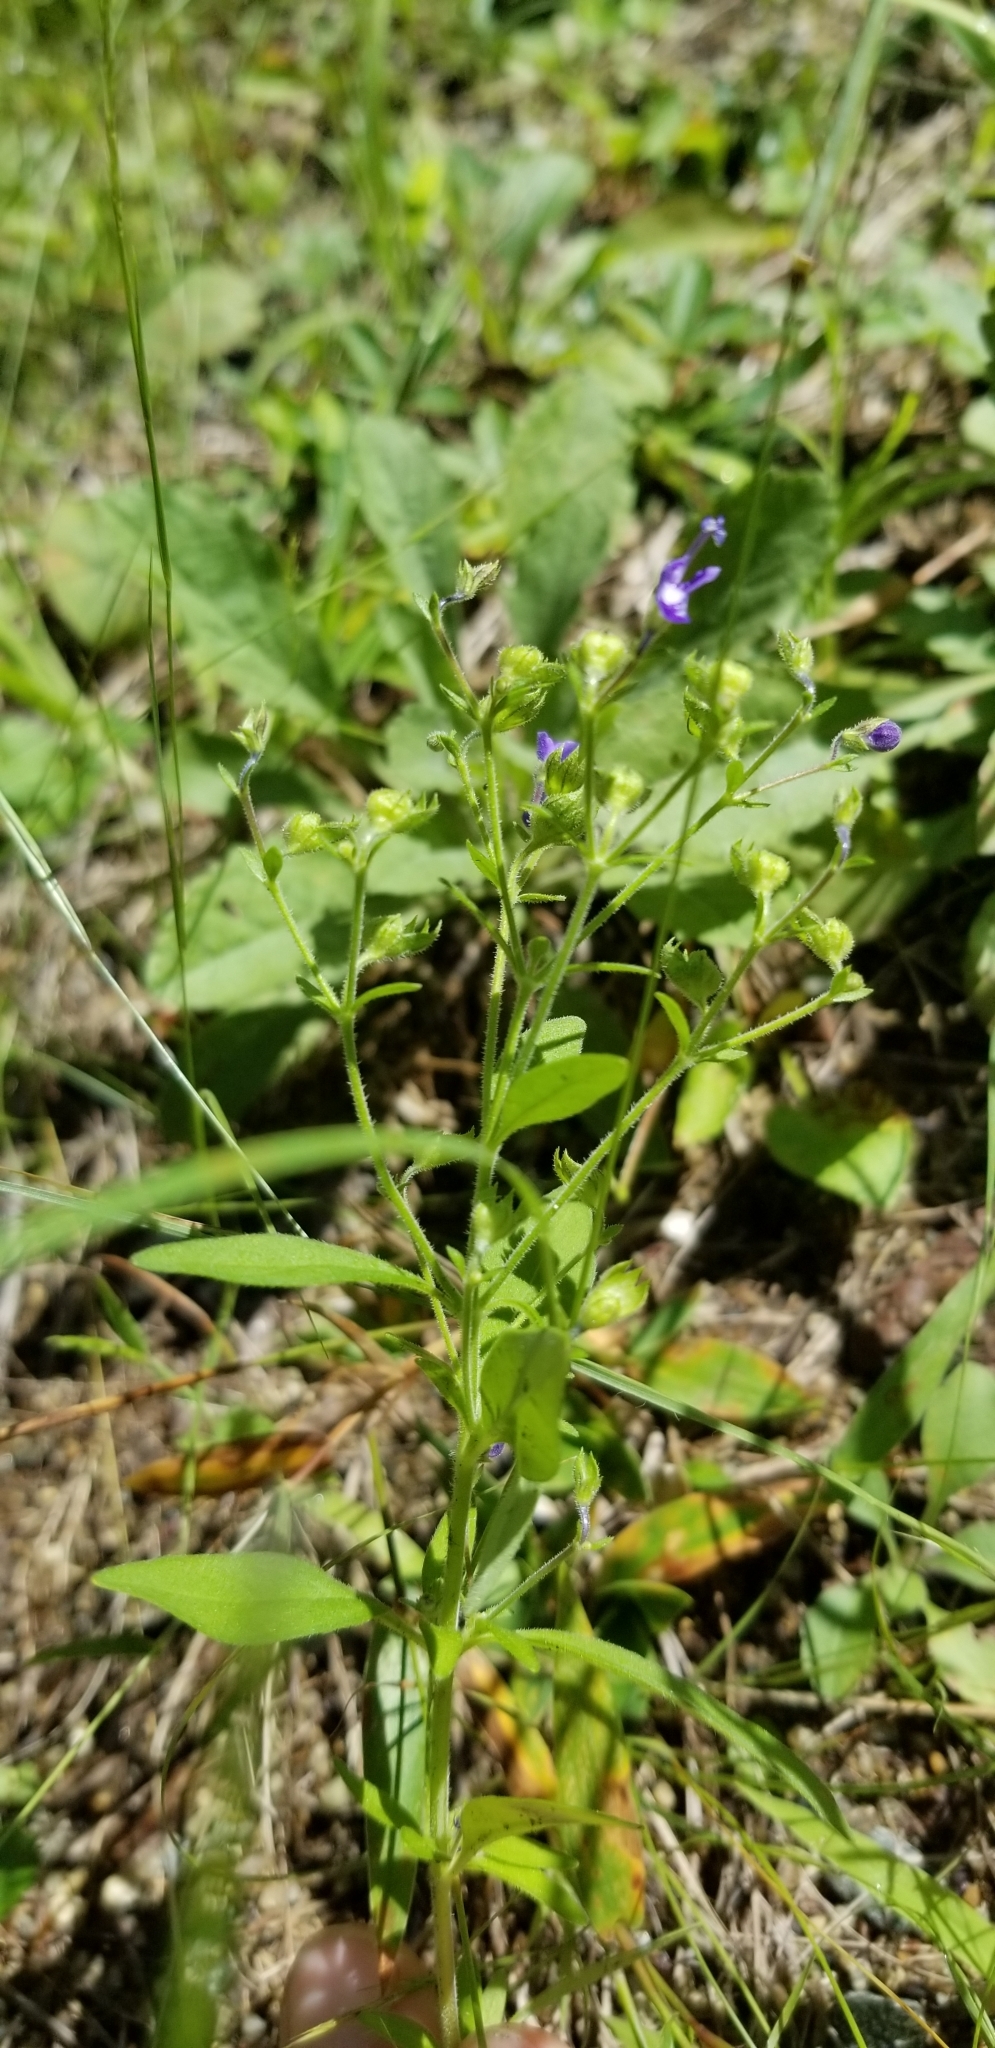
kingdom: Plantae
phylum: Tracheophyta
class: Magnoliopsida
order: Lamiales
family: Lamiaceae
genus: Trichostema
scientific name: Trichostema dichotomum
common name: Bastard pennyroyal
